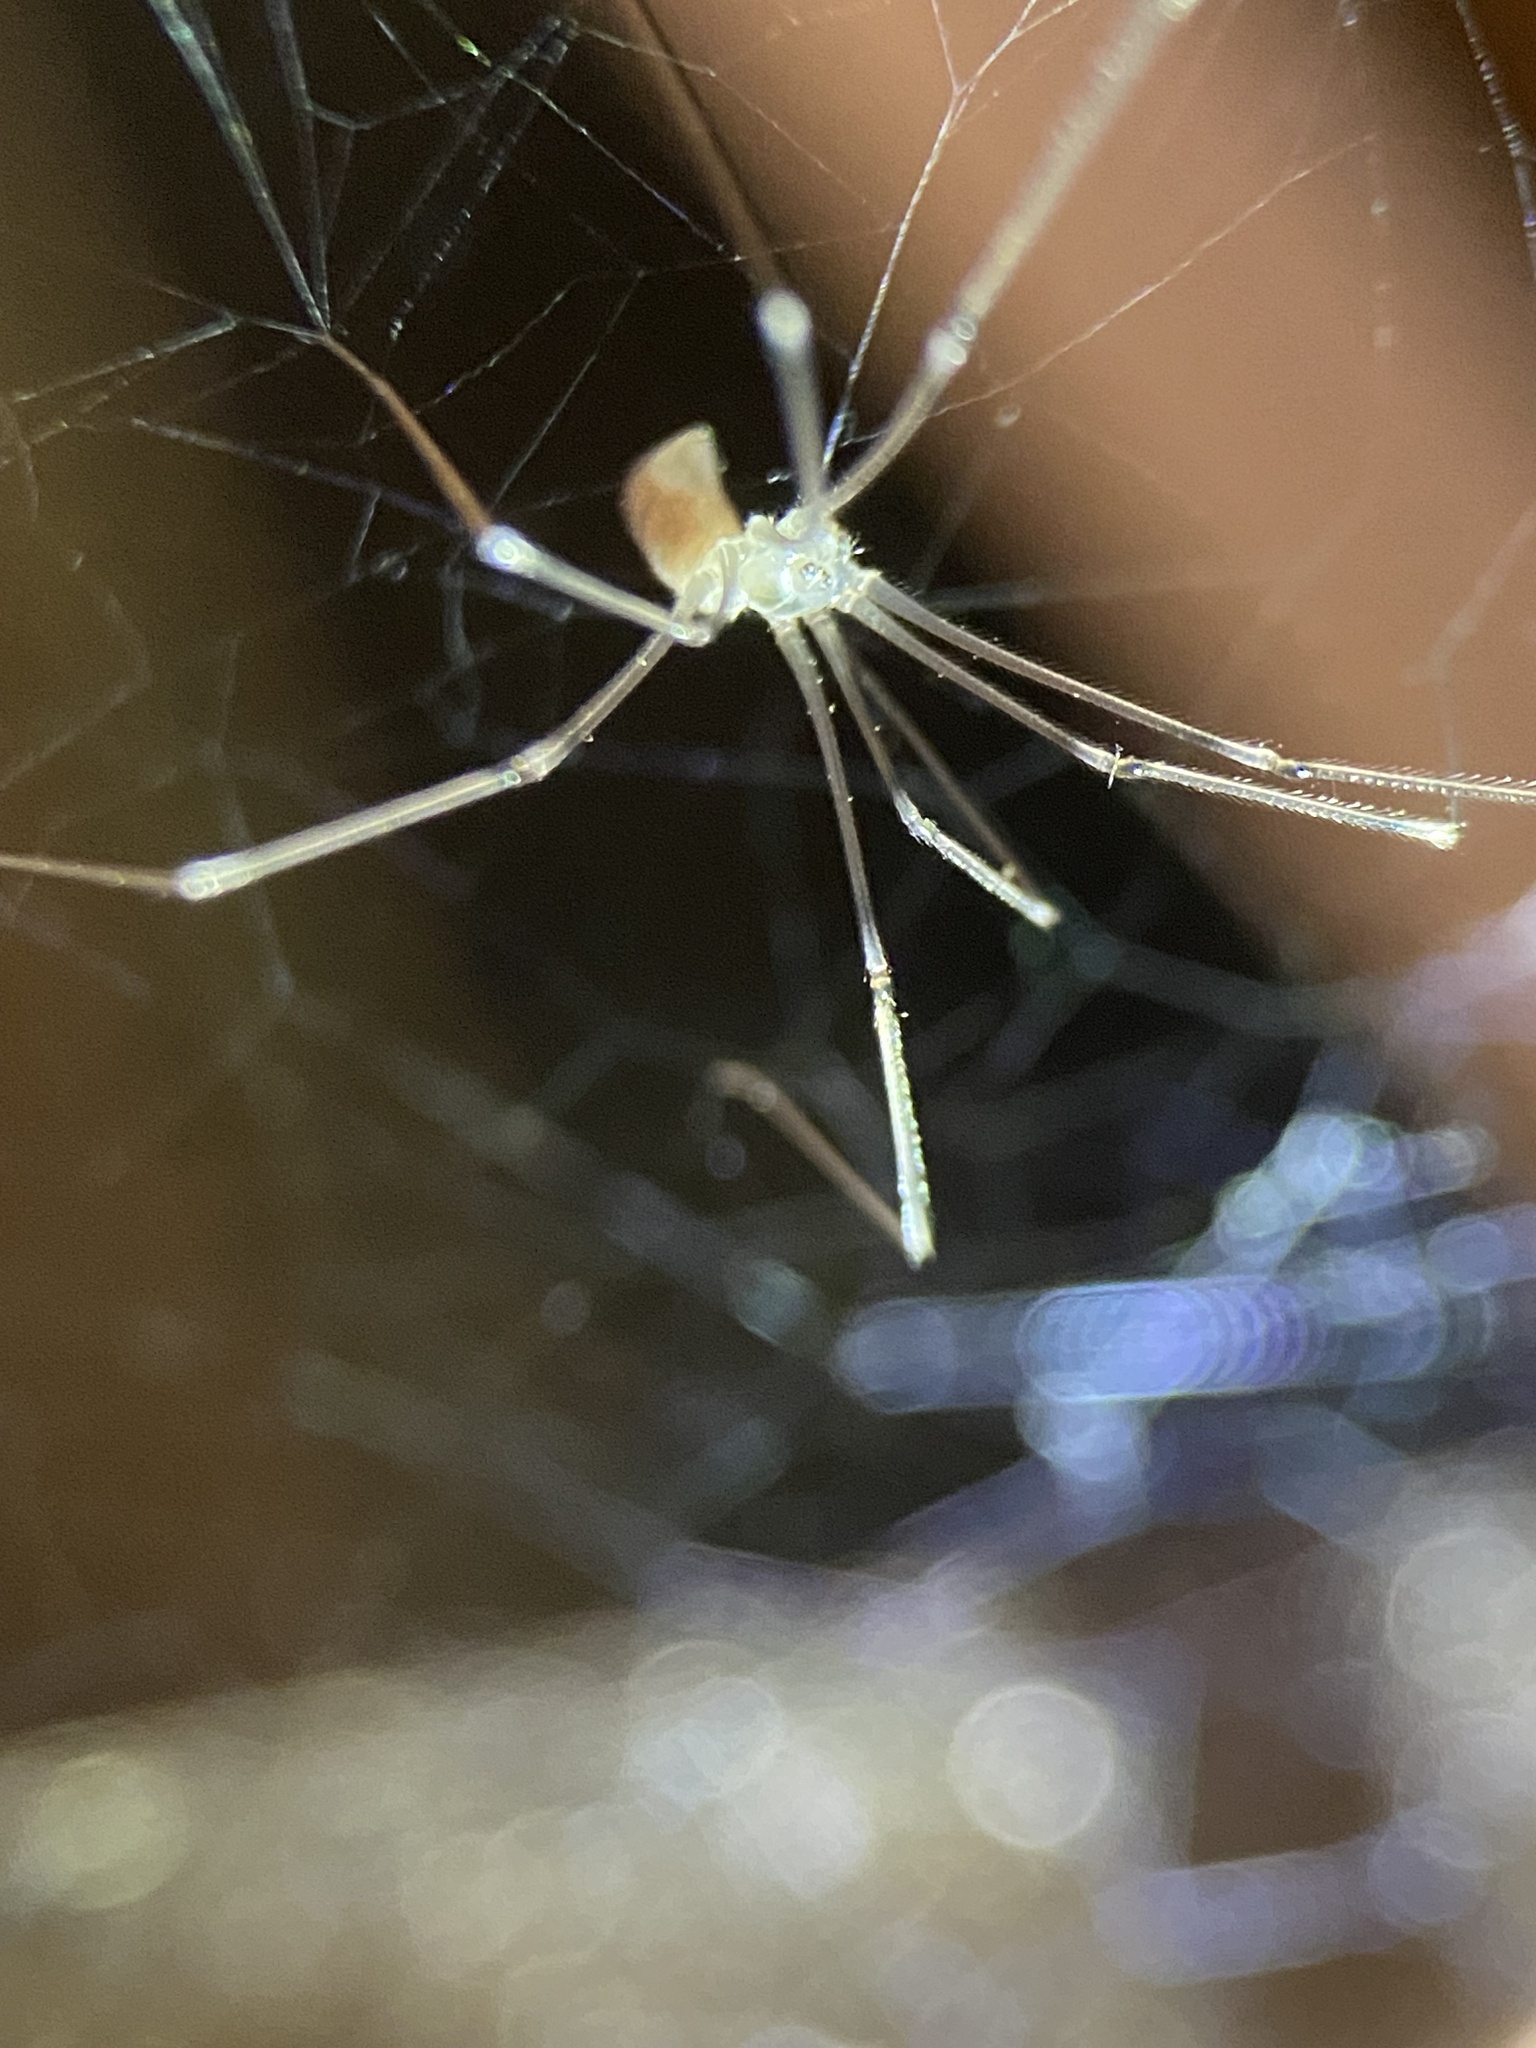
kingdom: Animalia
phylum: Arthropoda
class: Arachnida
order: Araneae
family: Pholcidae
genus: Pholcus
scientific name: Pholcus phalangioides
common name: Longbodied cellar spider
